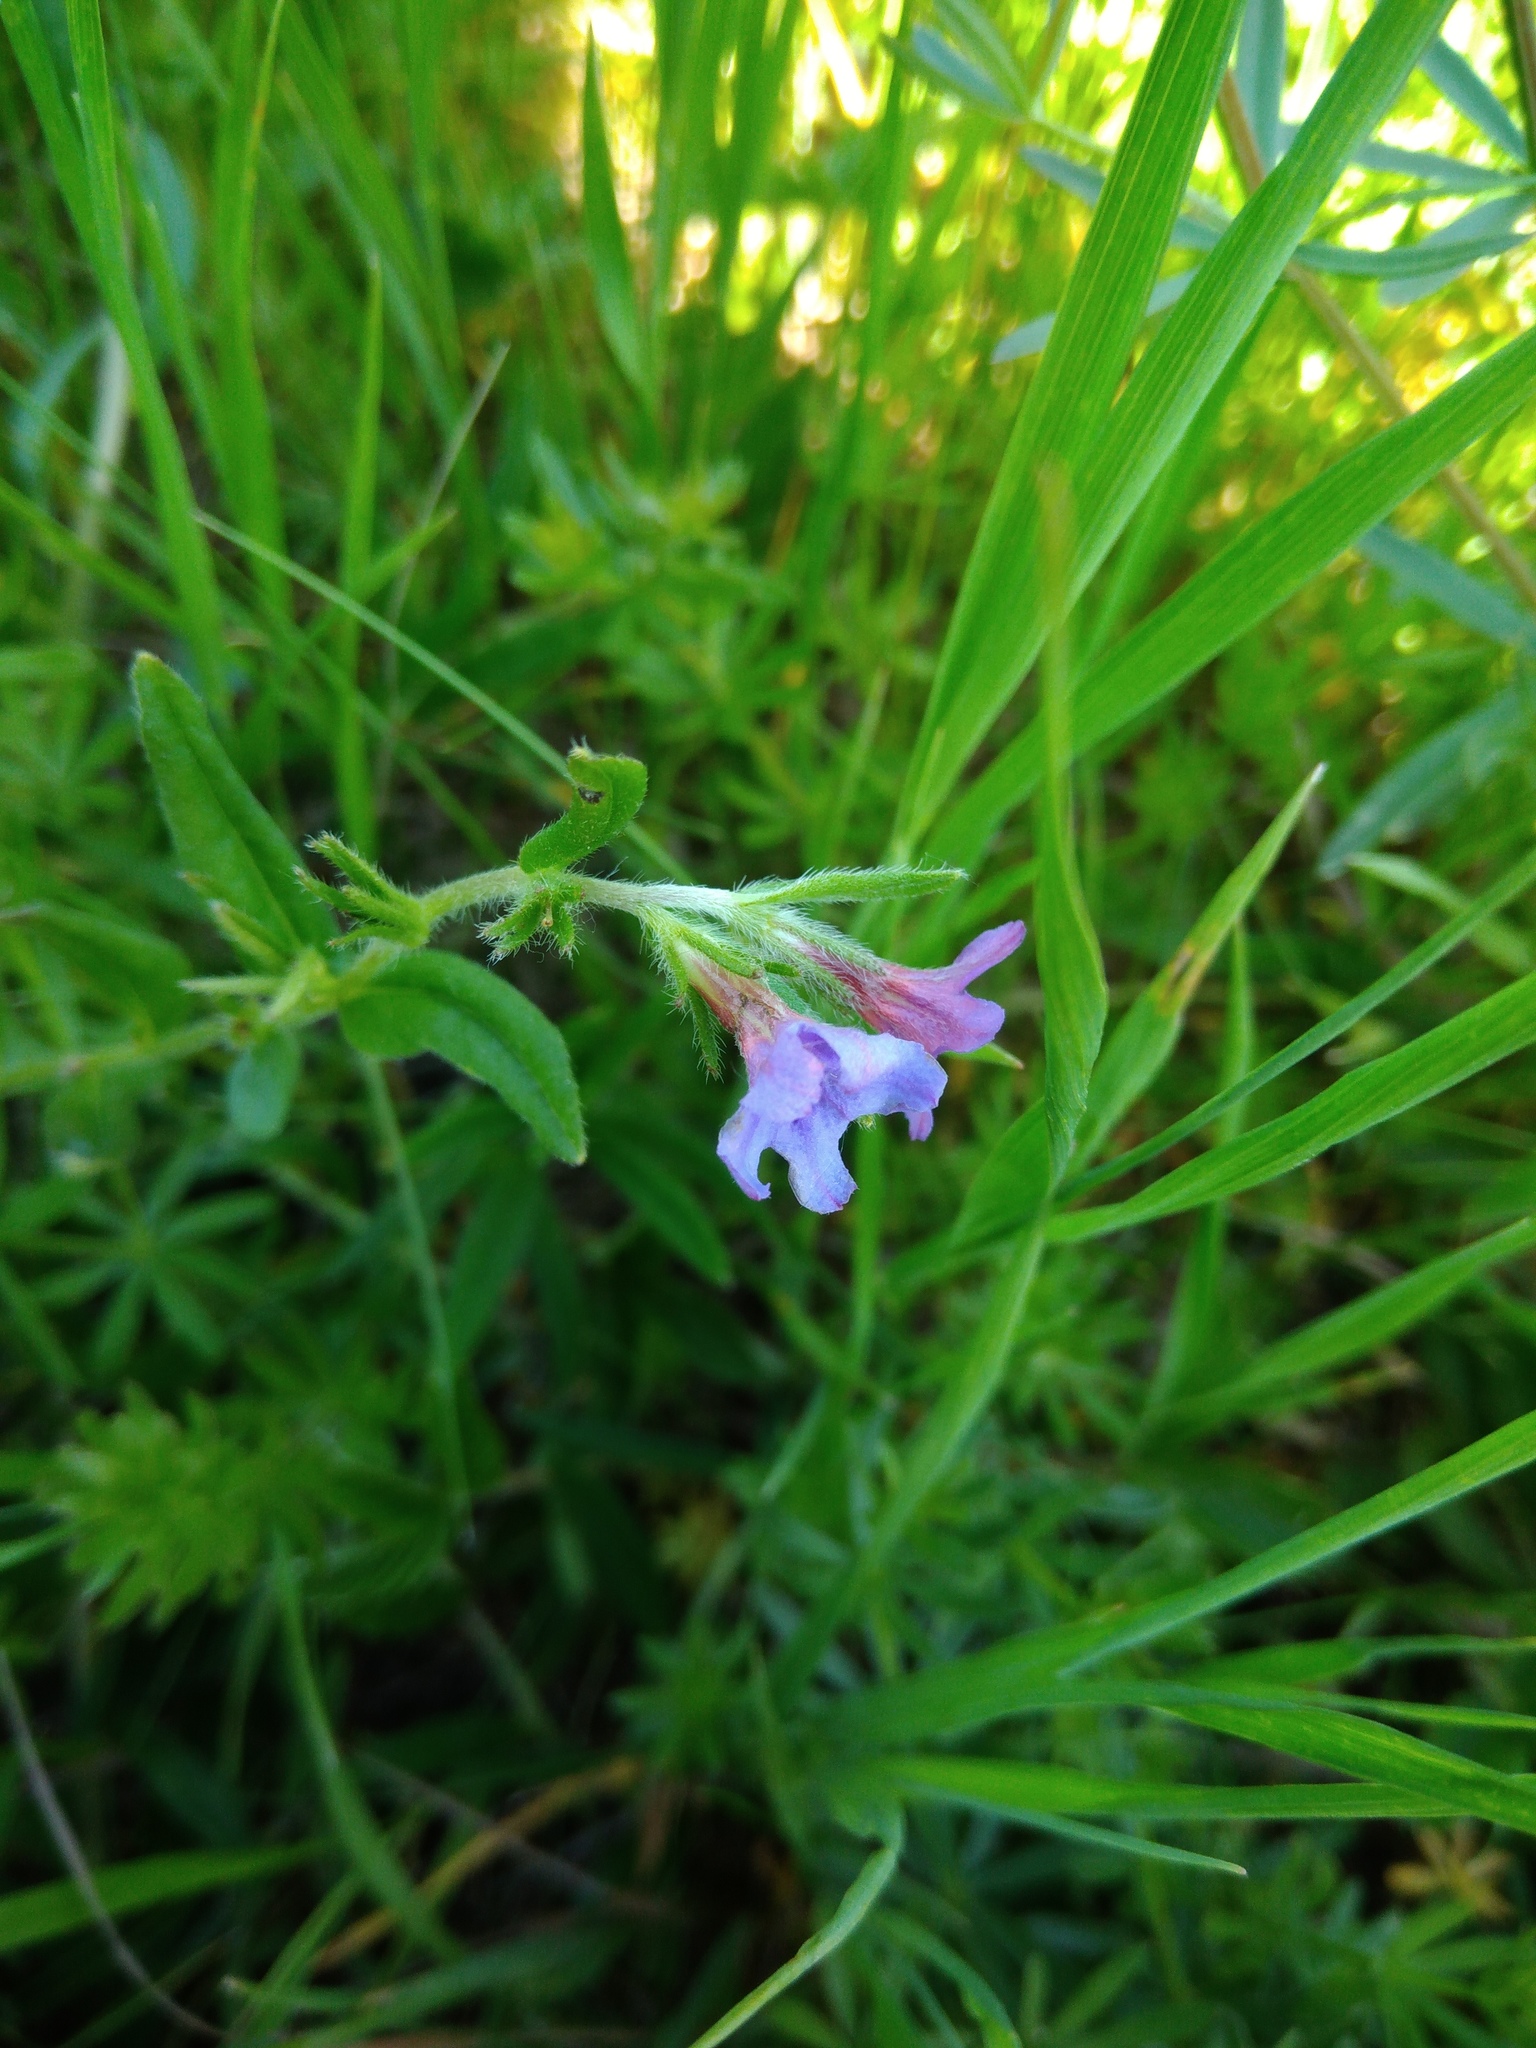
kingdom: Plantae
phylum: Tracheophyta
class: Magnoliopsida
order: Boraginales
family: Boraginaceae
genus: Aegonychon
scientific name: Aegonychon purpurocaeruleum
